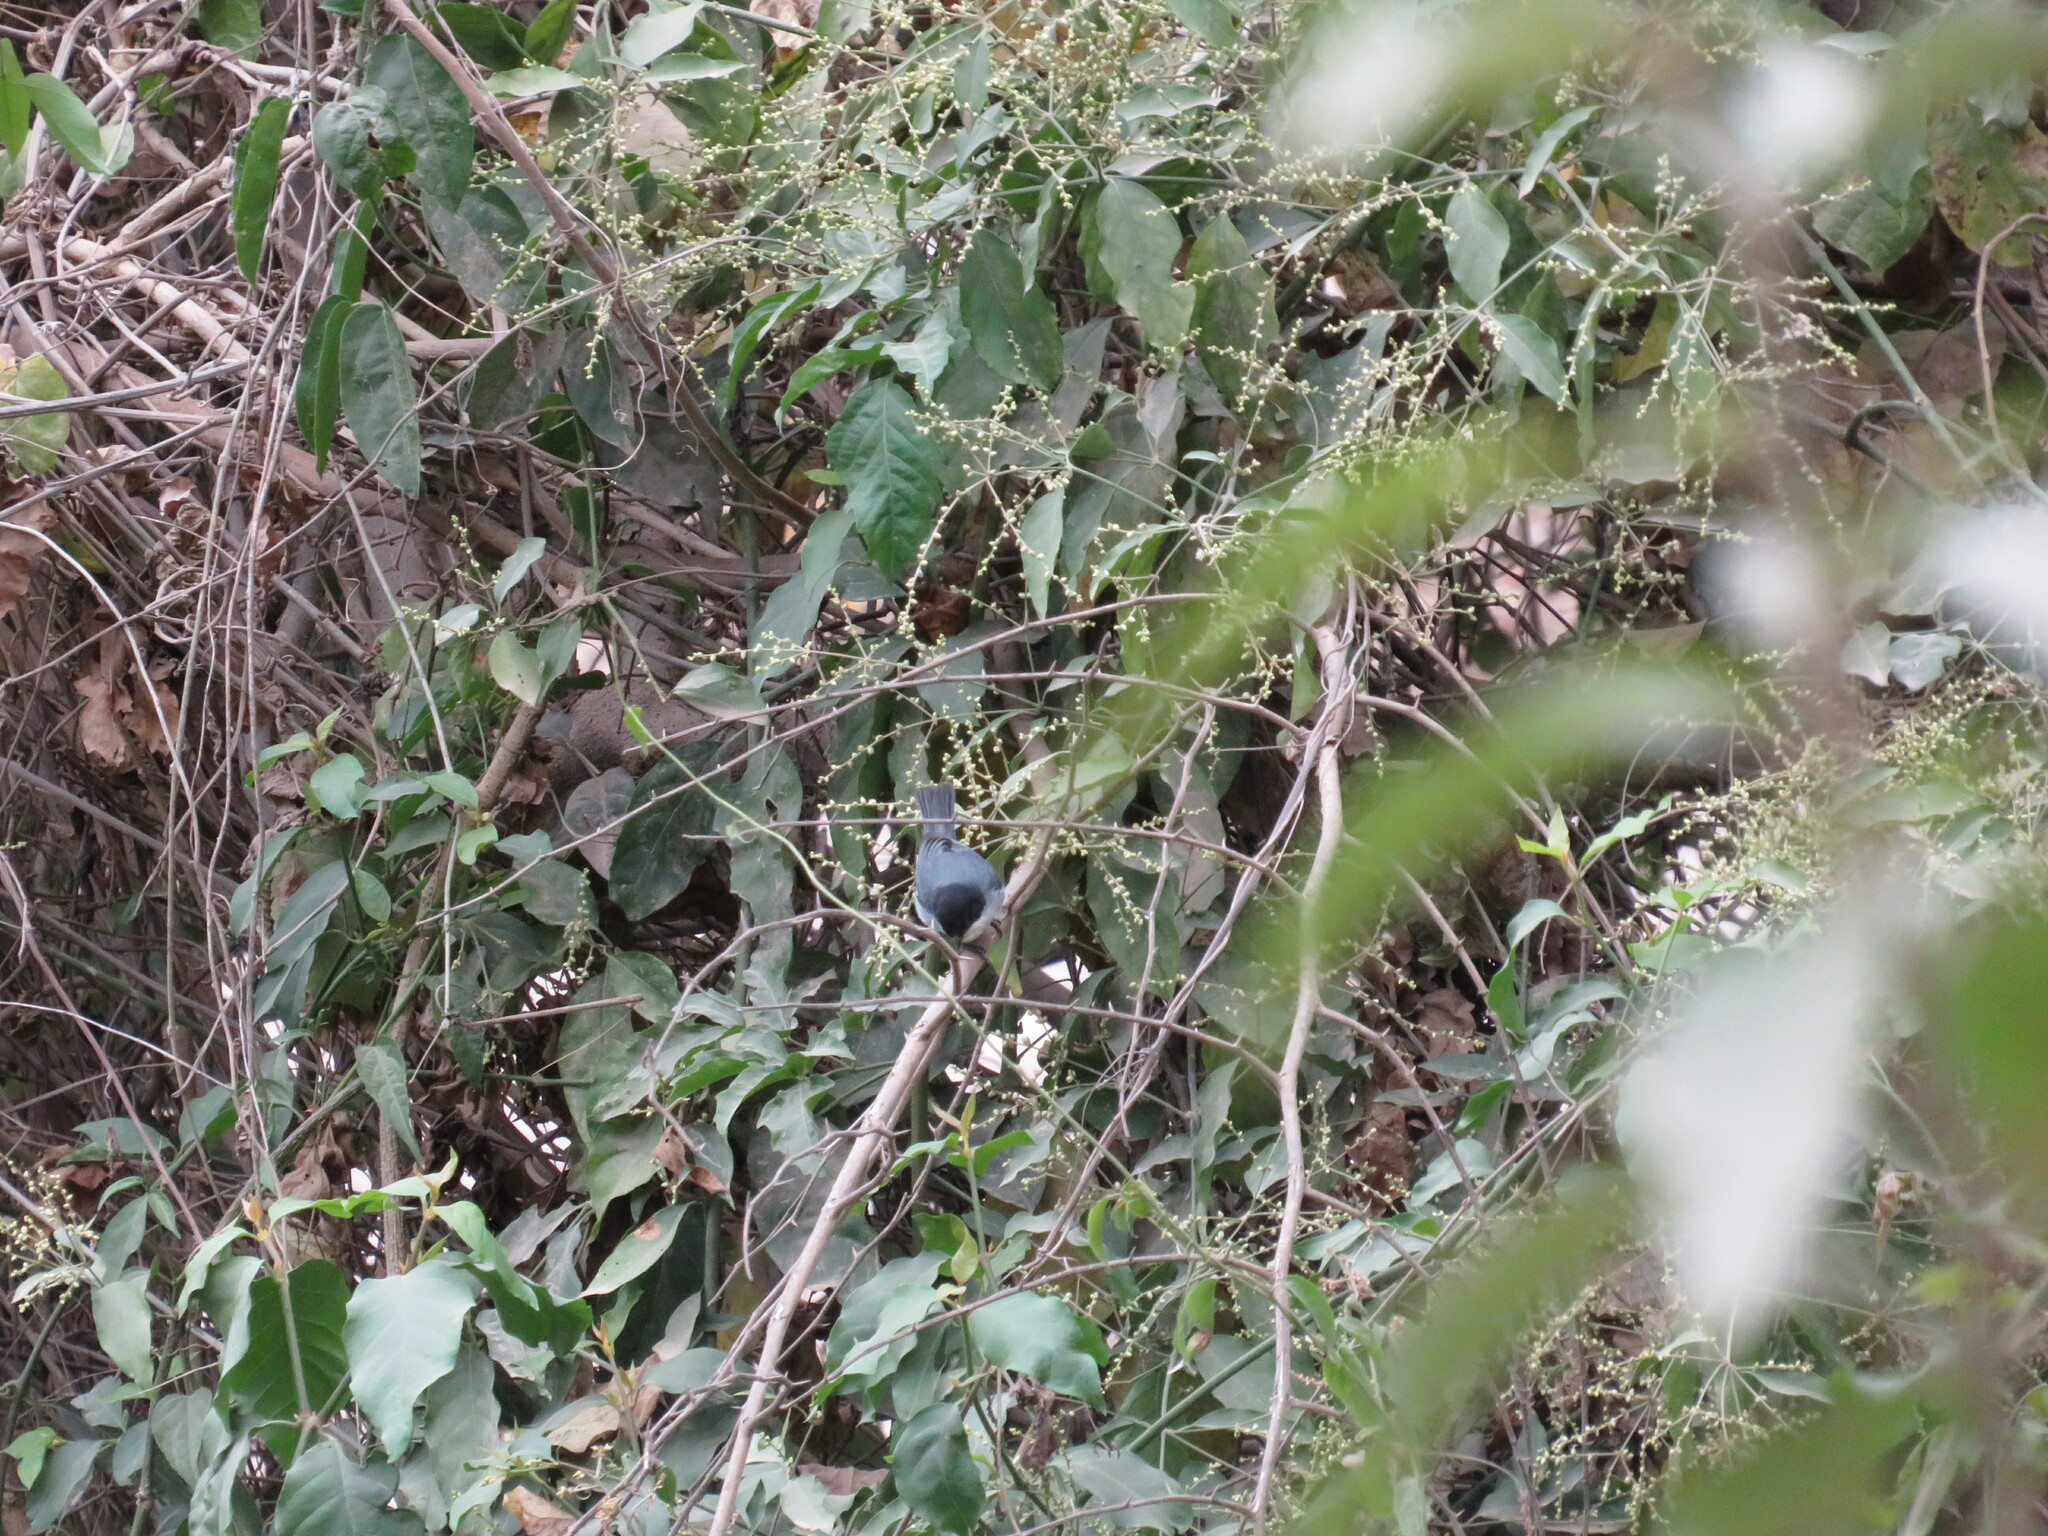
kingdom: Animalia
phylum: Chordata
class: Aves
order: Passeriformes
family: Thraupidae
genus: Microspingus
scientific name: Microspingus melanoleucus
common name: Black-capped warbling-finch
